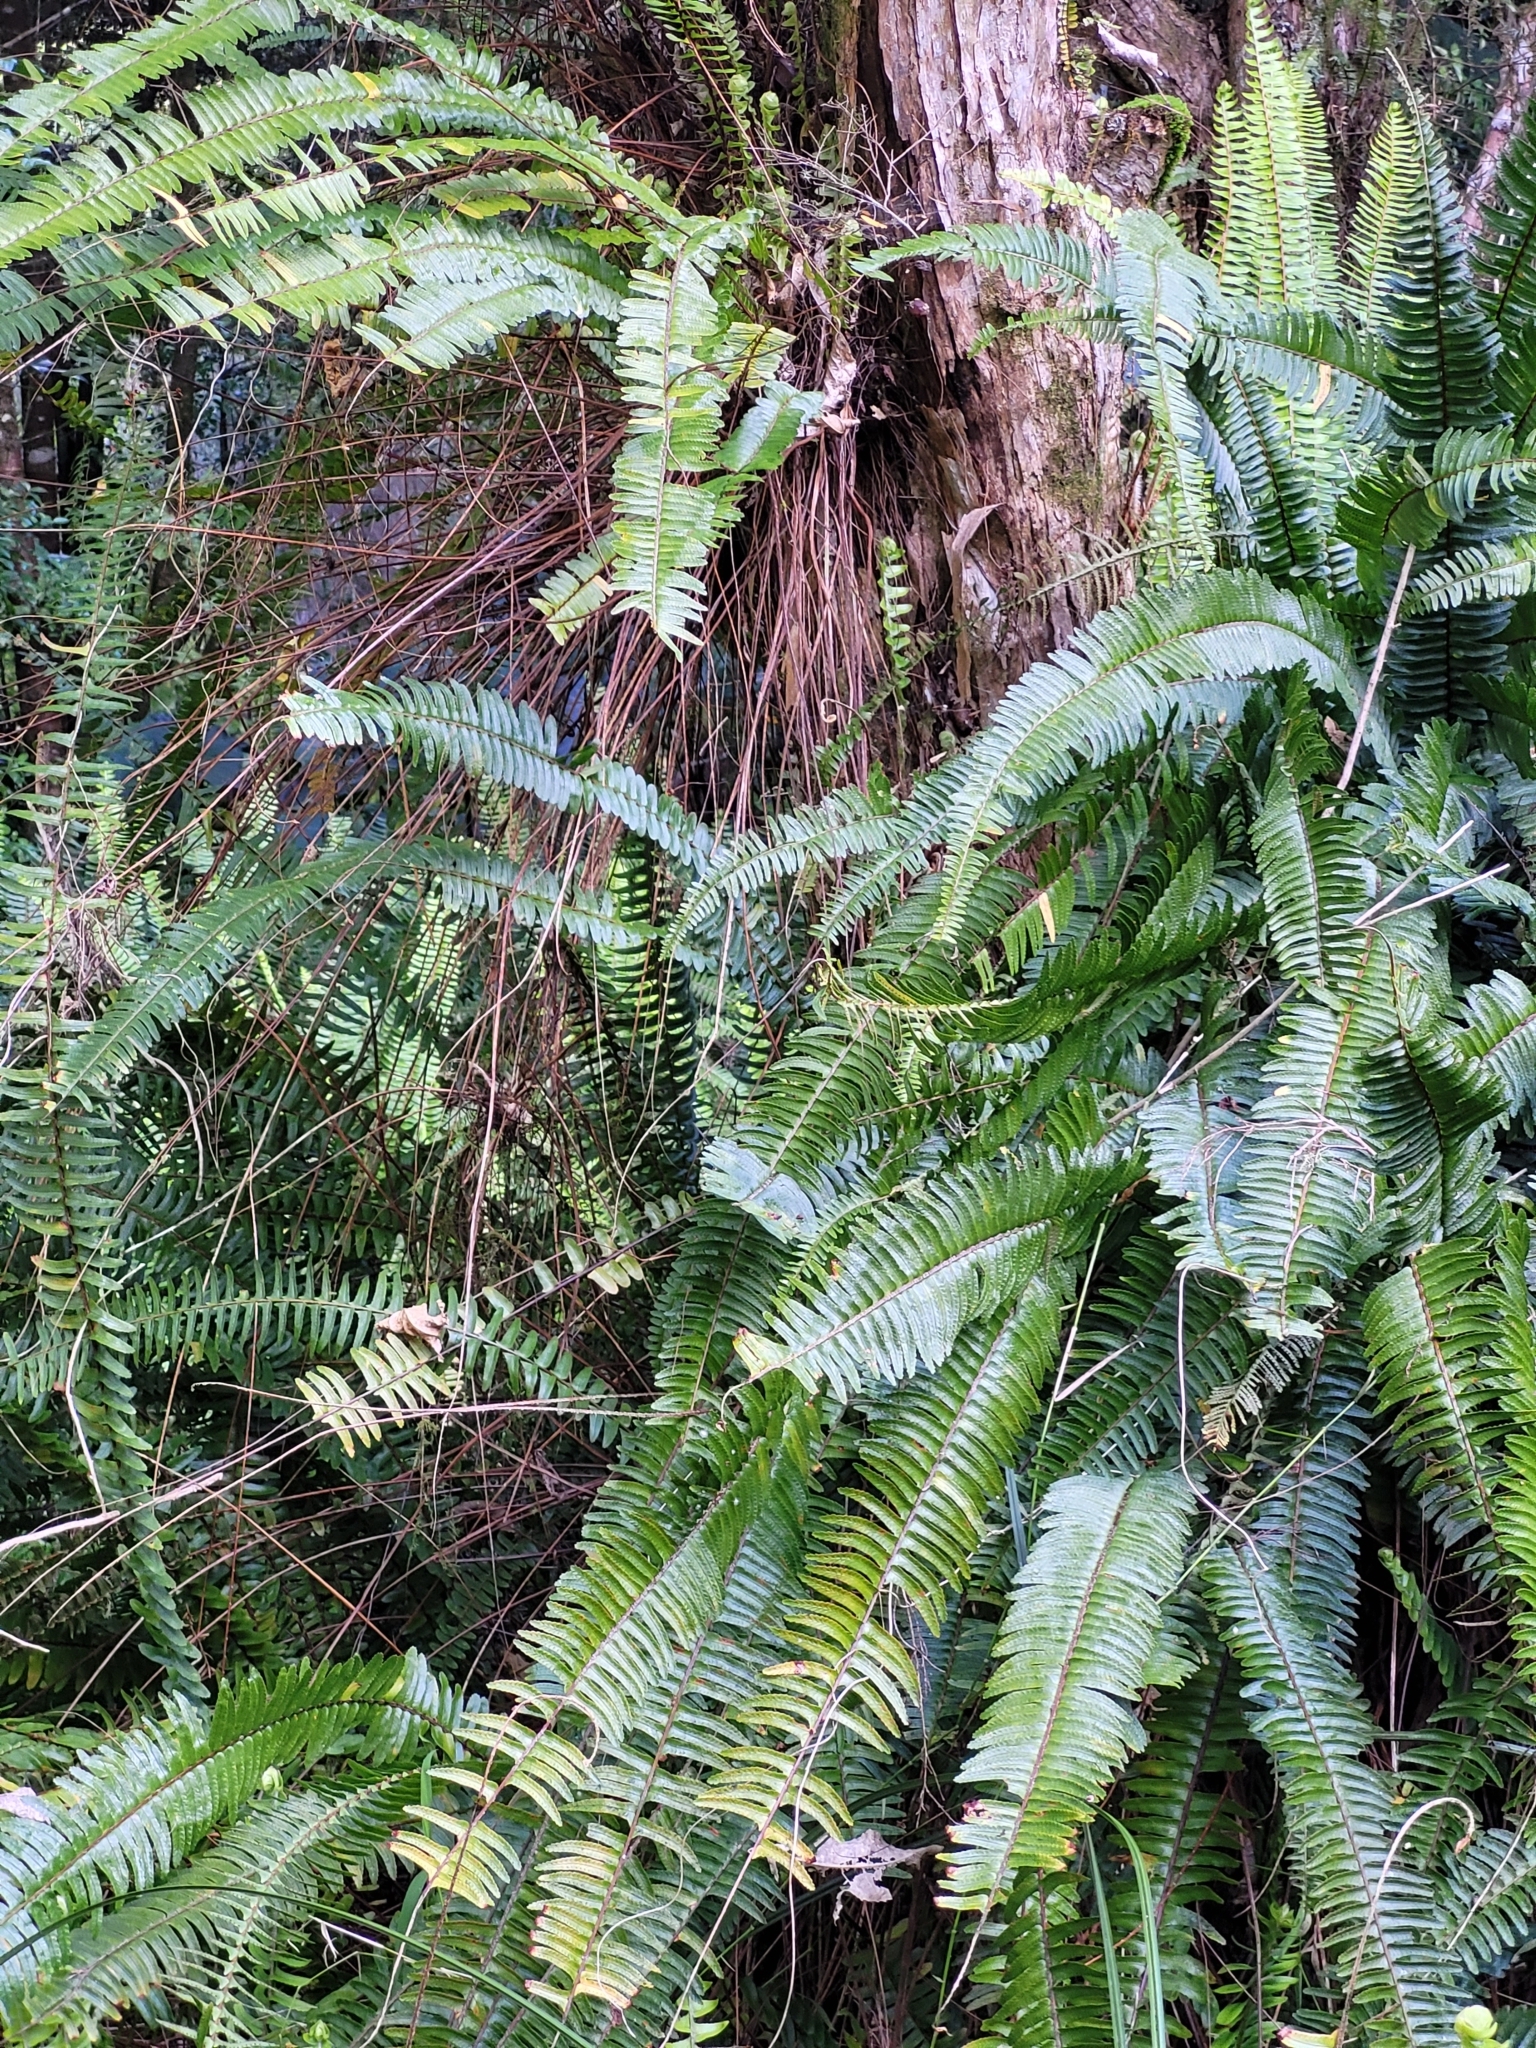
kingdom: Plantae
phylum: Tracheophyta
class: Polypodiopsida
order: Polypodiales
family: Nephrolepidaceae
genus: Nephrolepis
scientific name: Nephrolepis cordifolia
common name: Narrow swordfern
